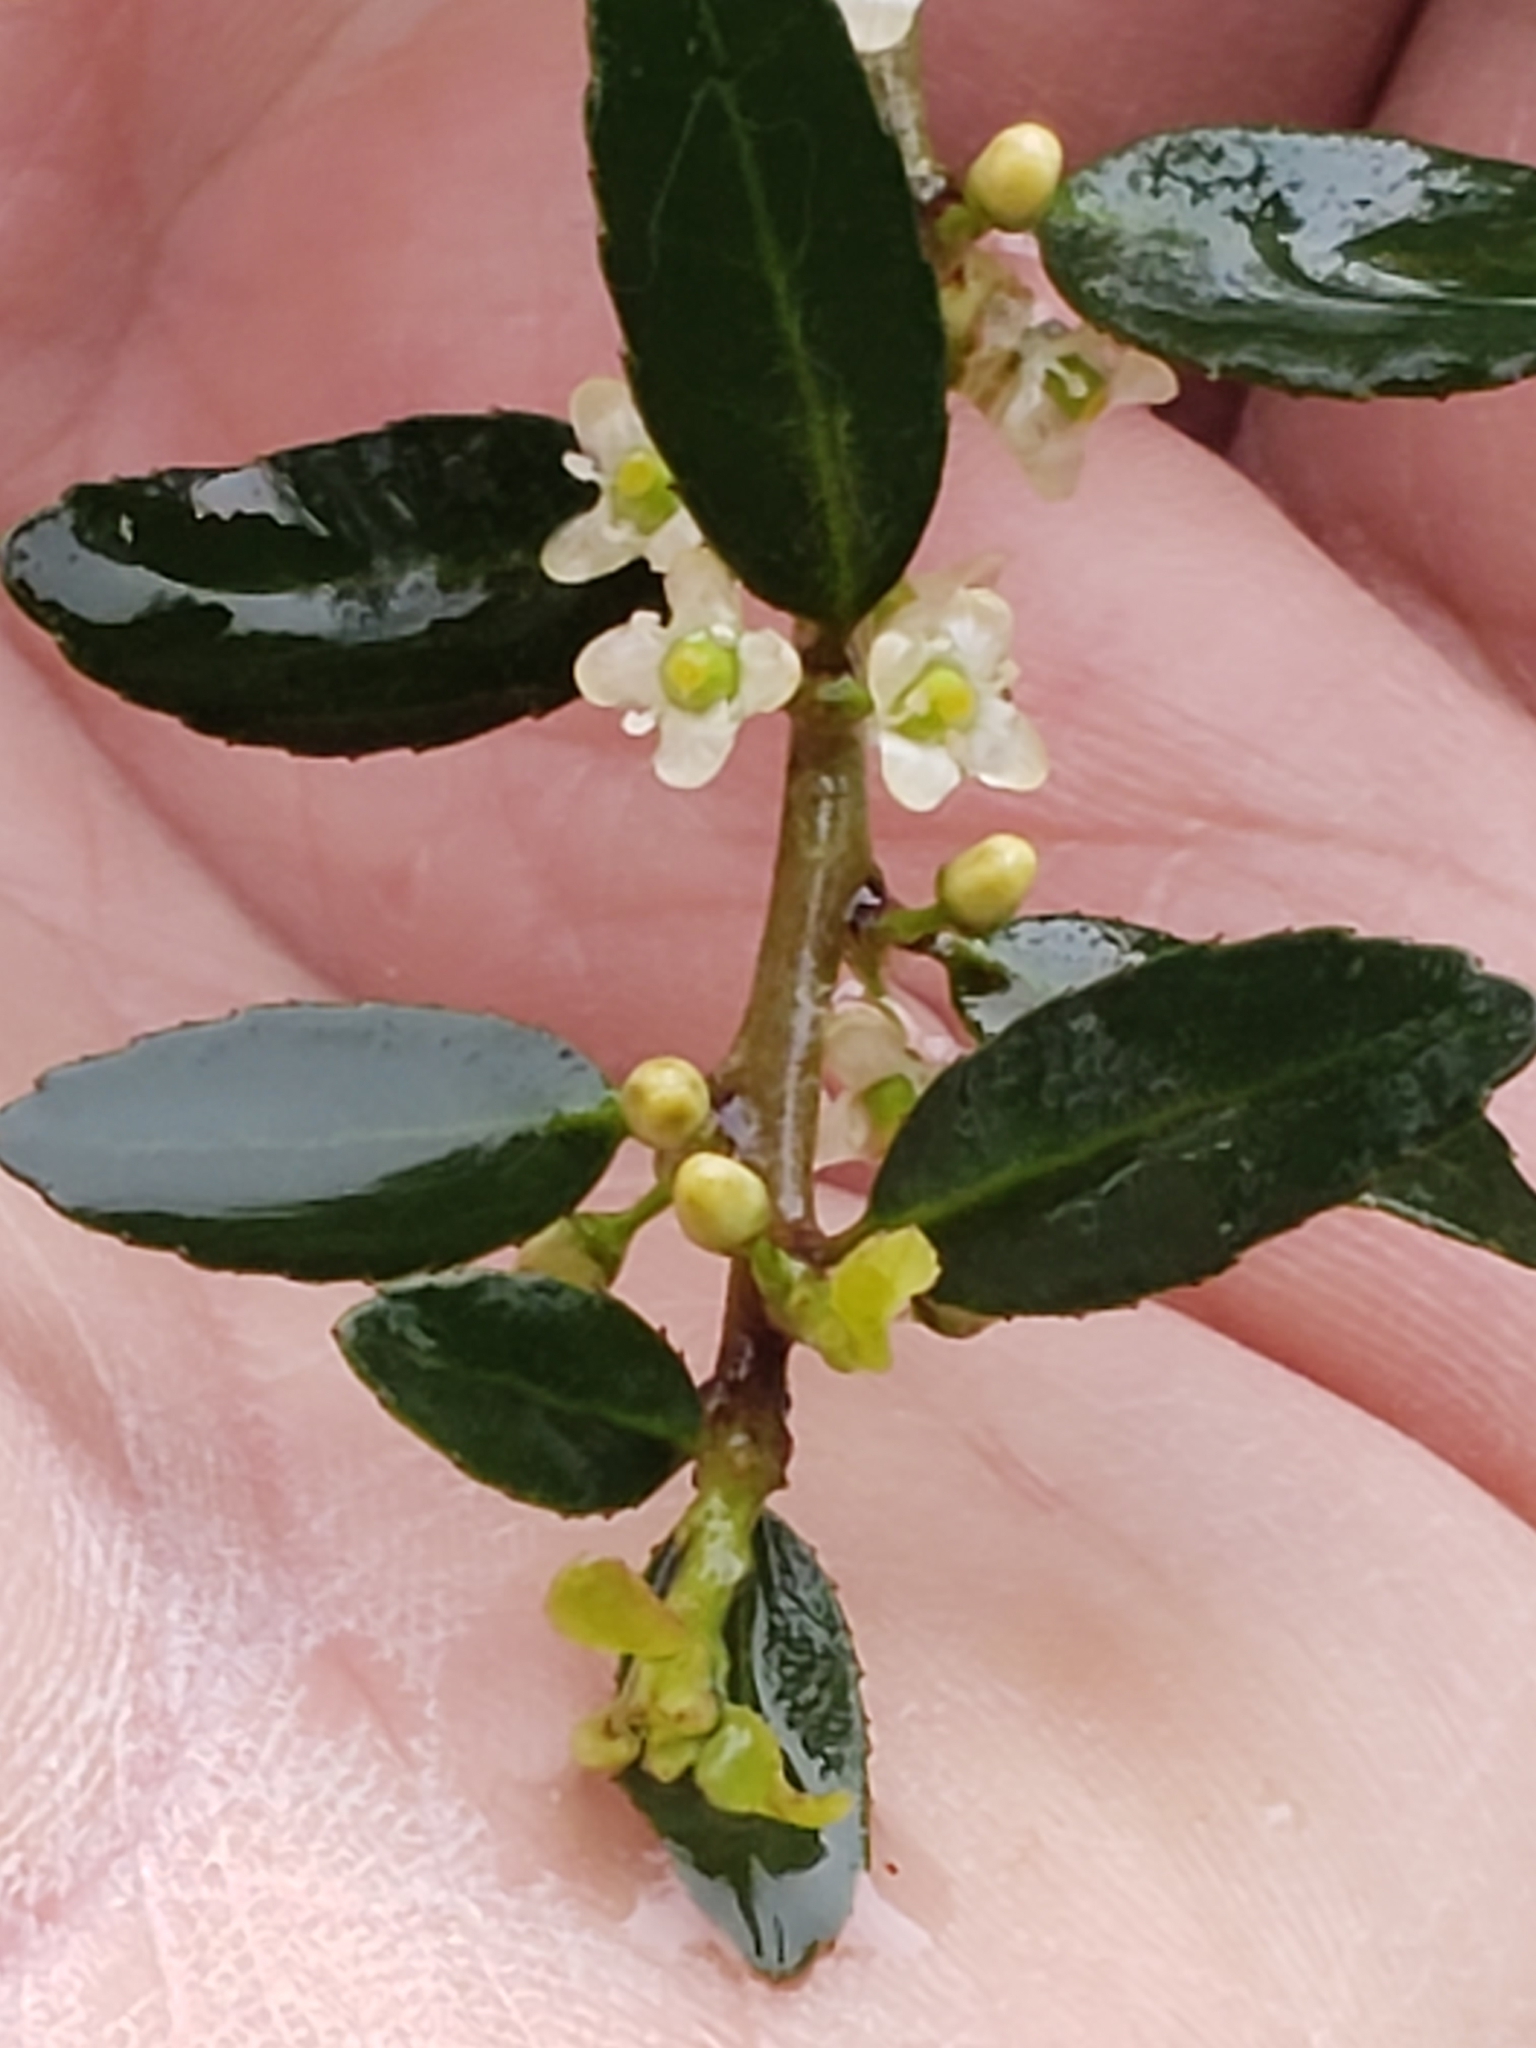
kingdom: Plantae
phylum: Tracheophyta
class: Magnoliopsida
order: Aquifoliales
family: Aquifoliaceae
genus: Ilex
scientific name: Ilex vomitoria
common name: Yaupon holly
